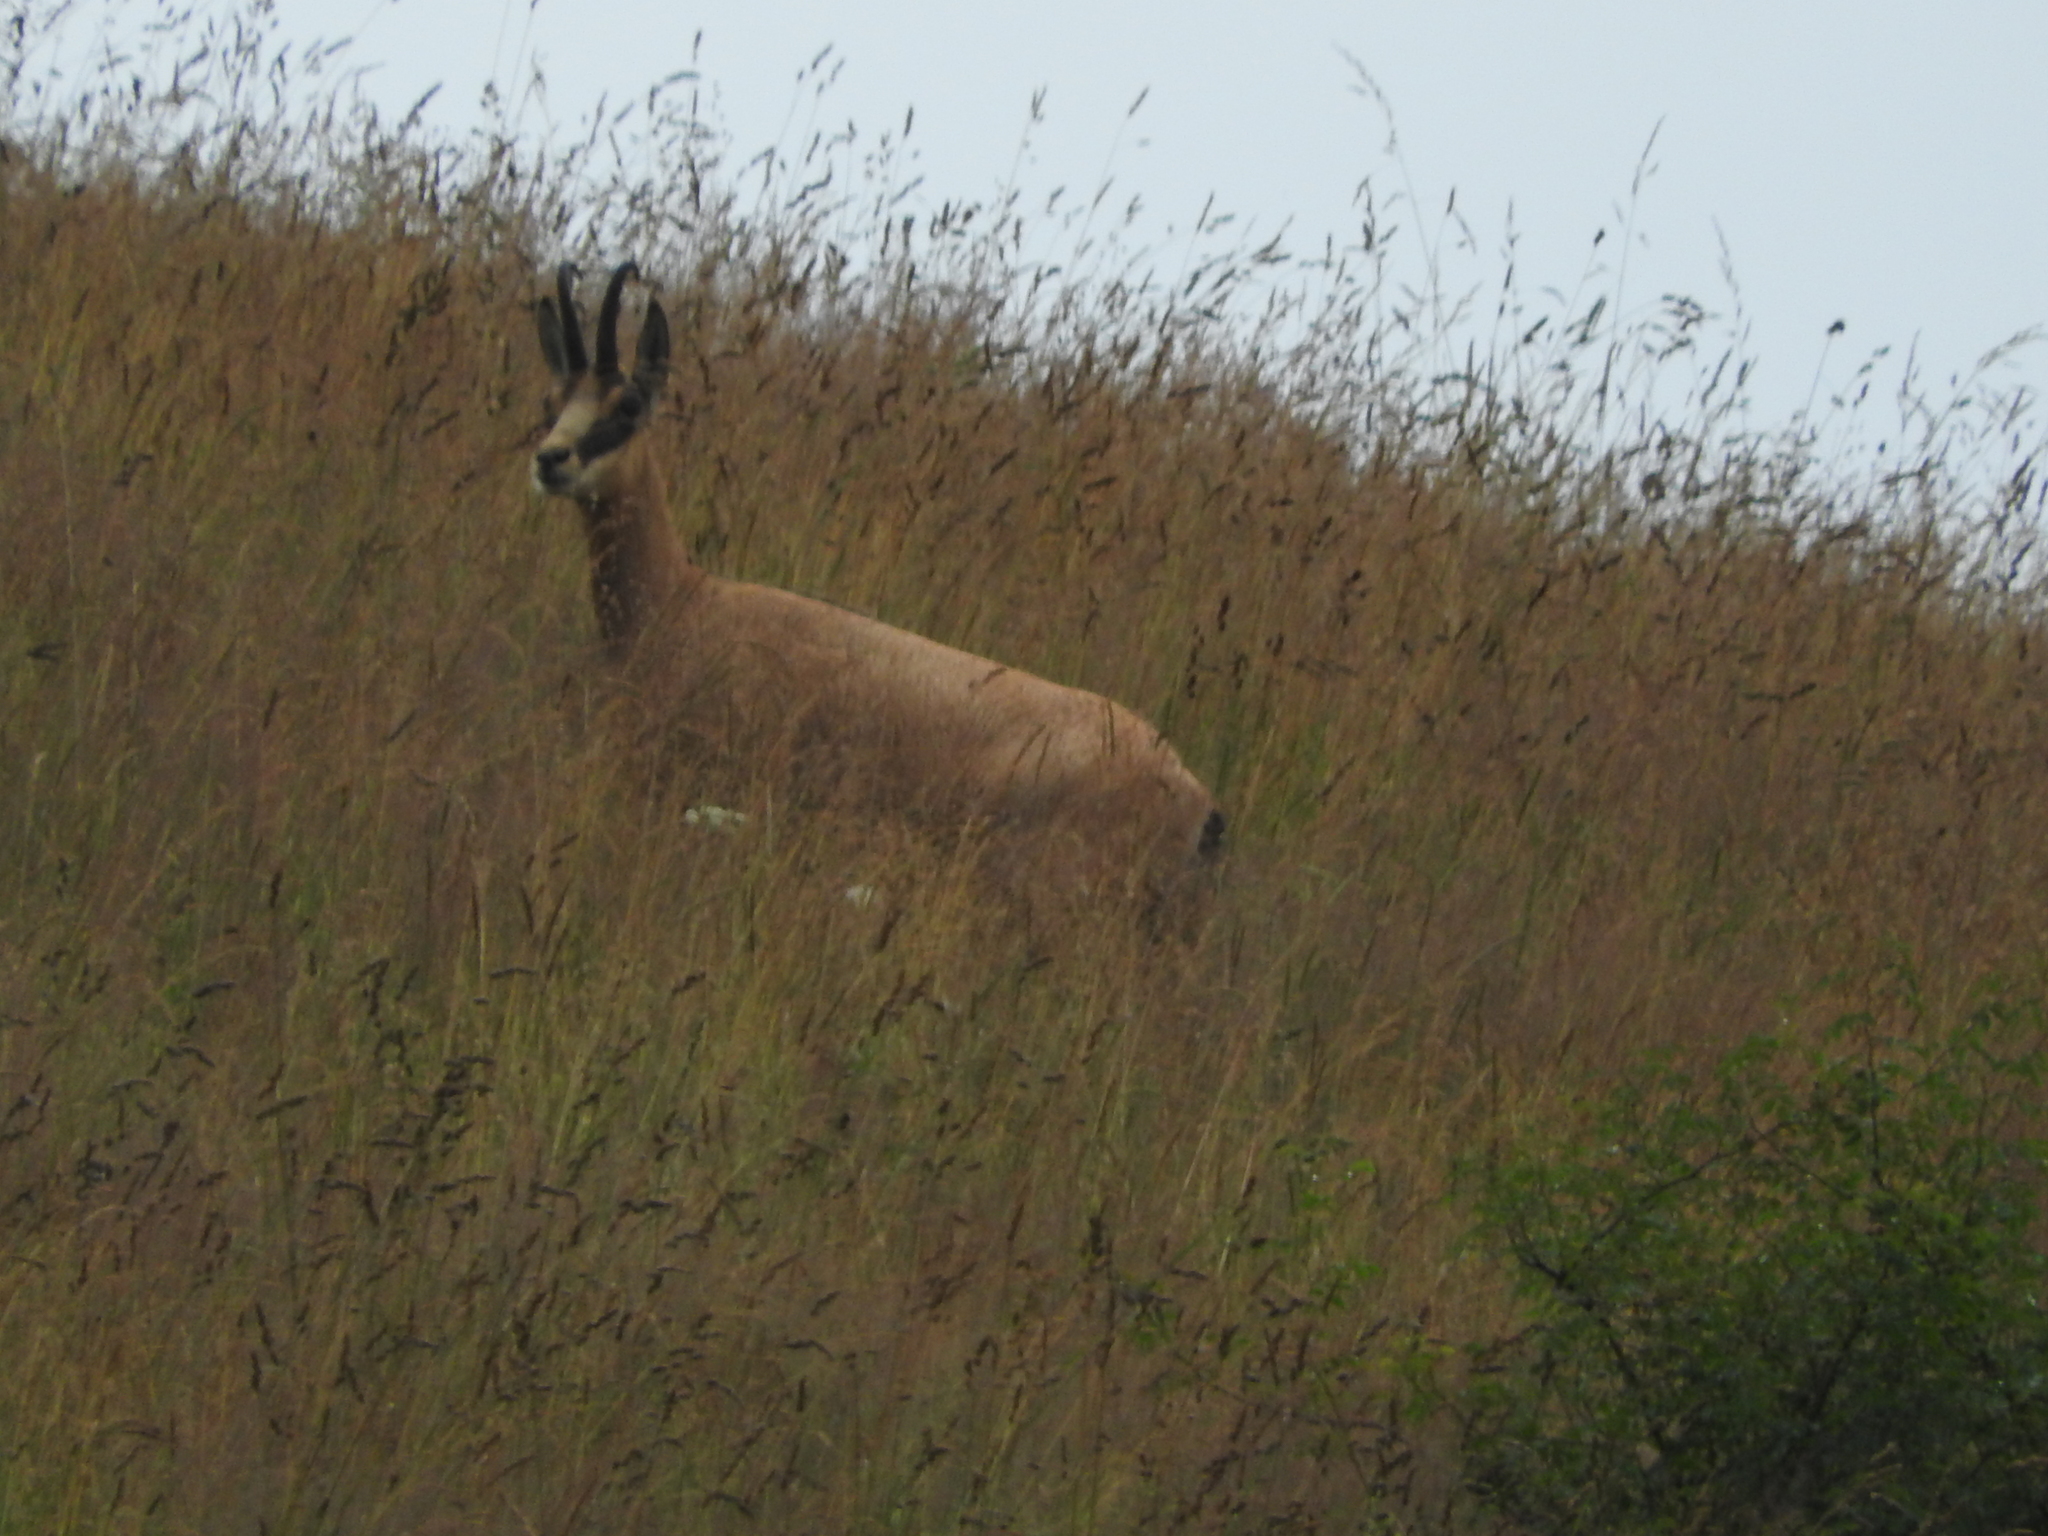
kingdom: Animalia
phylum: Chordata
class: Mammalia
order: Artiodactyla
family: Bovidae
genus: Rupicapra
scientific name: Rupicapra rupicapra
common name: Chamois
